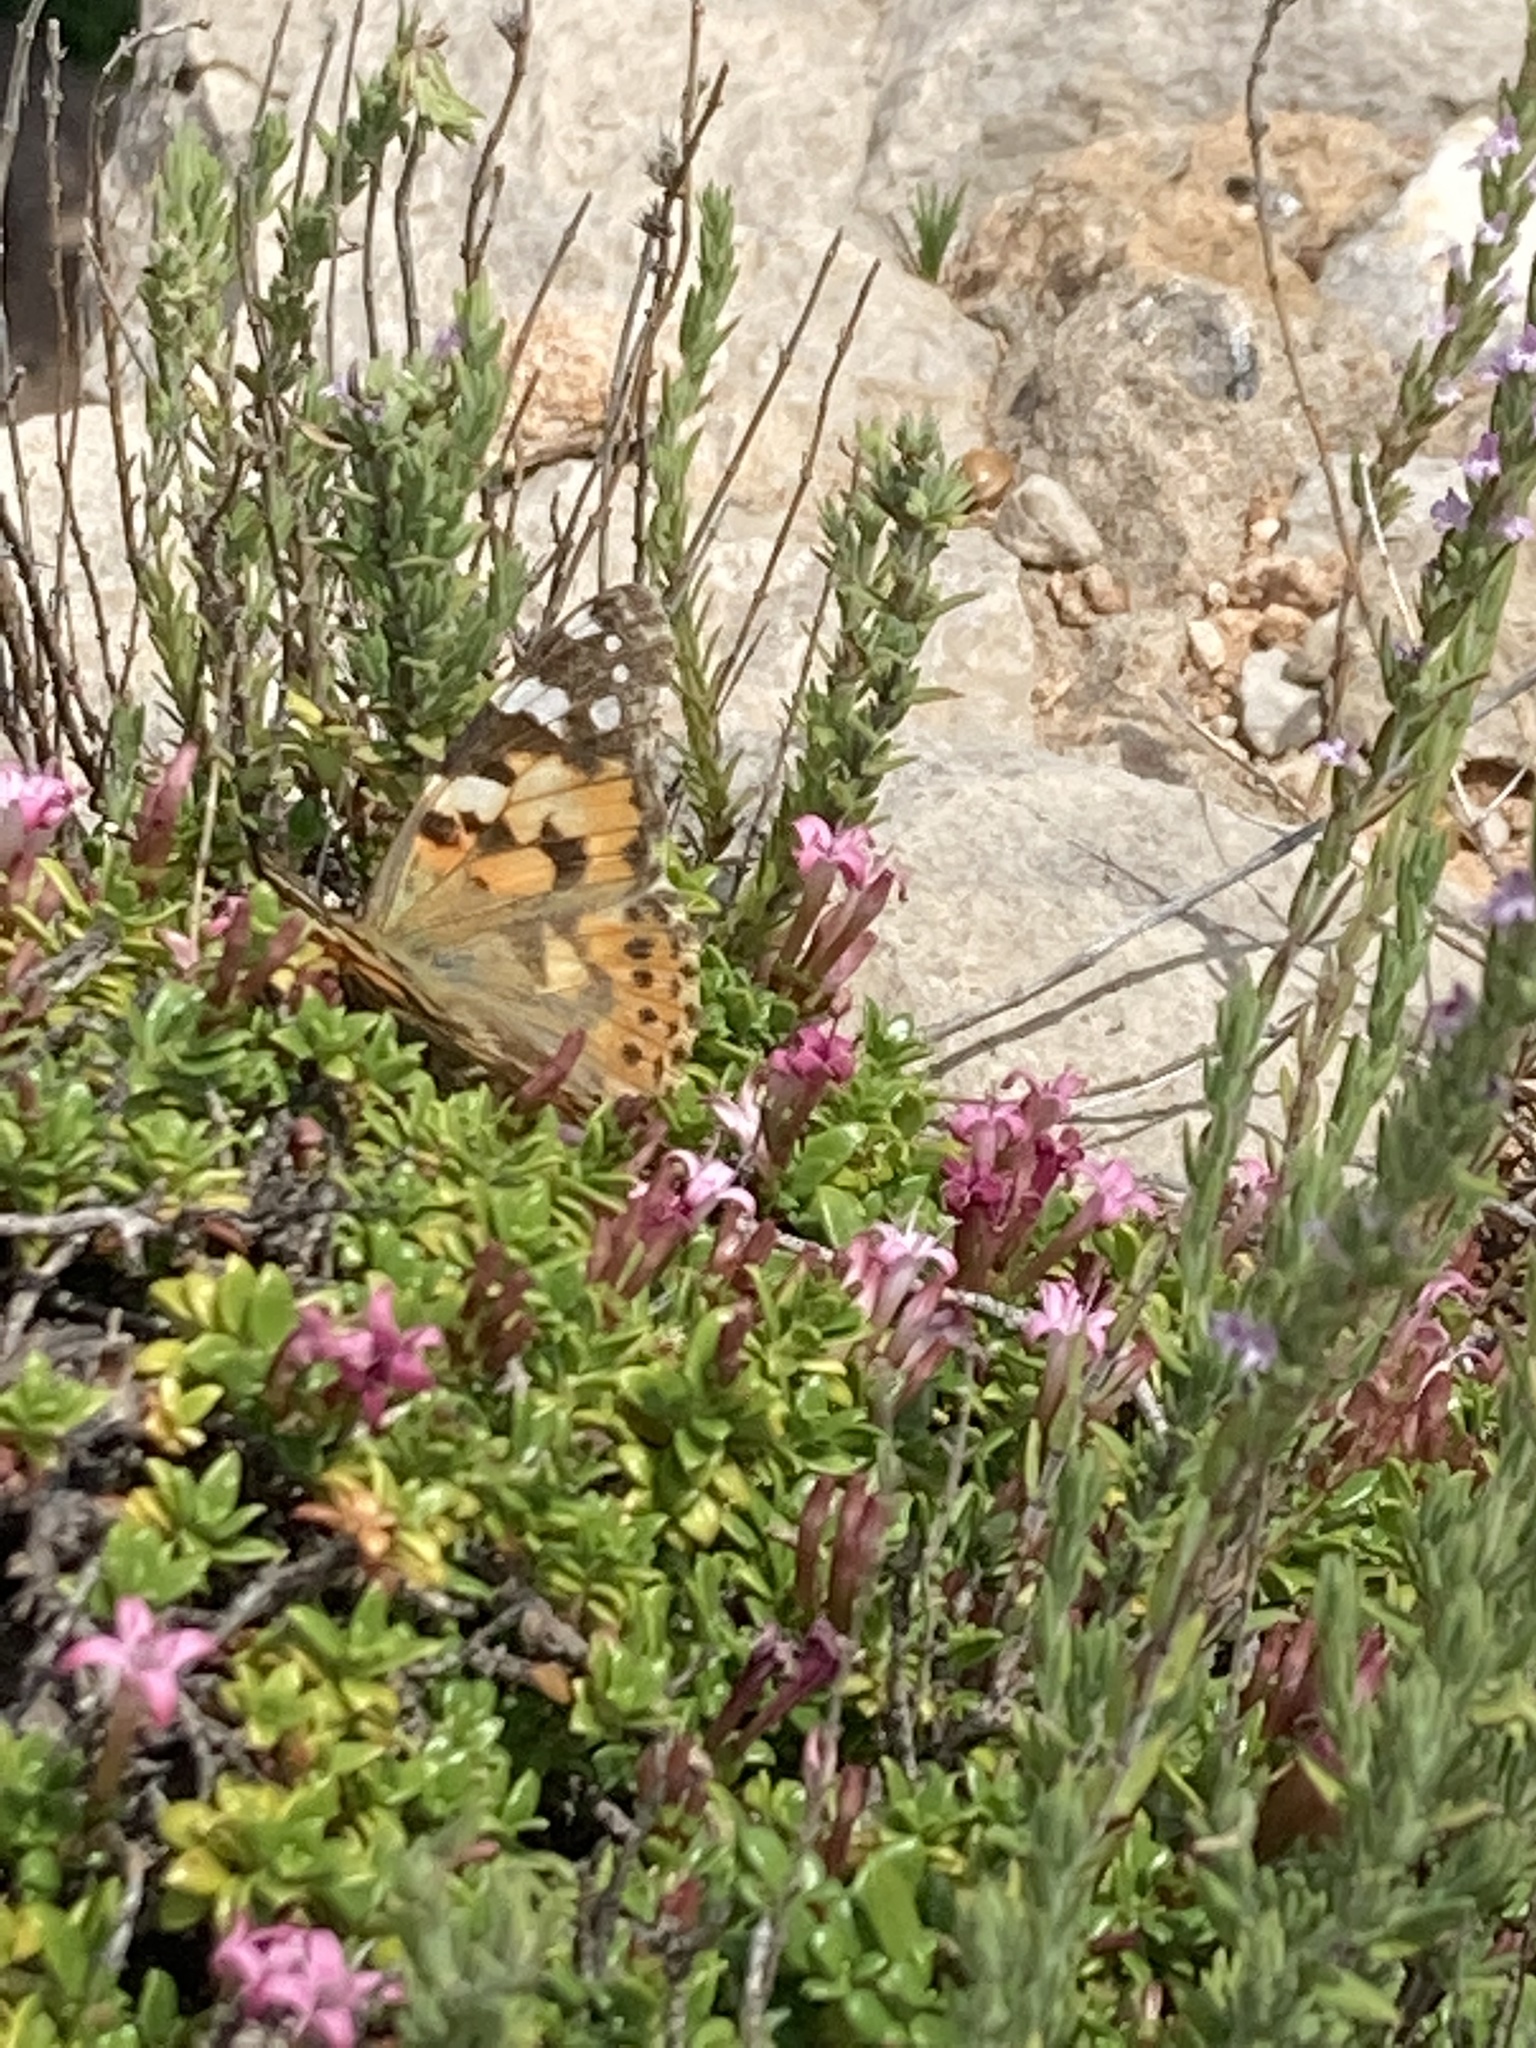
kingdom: Animalia
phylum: Arthropoda
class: Insecta
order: Lepidoptera
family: Nymphalidae
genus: Vanessa
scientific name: Vanessa cardui
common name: Painted lady
